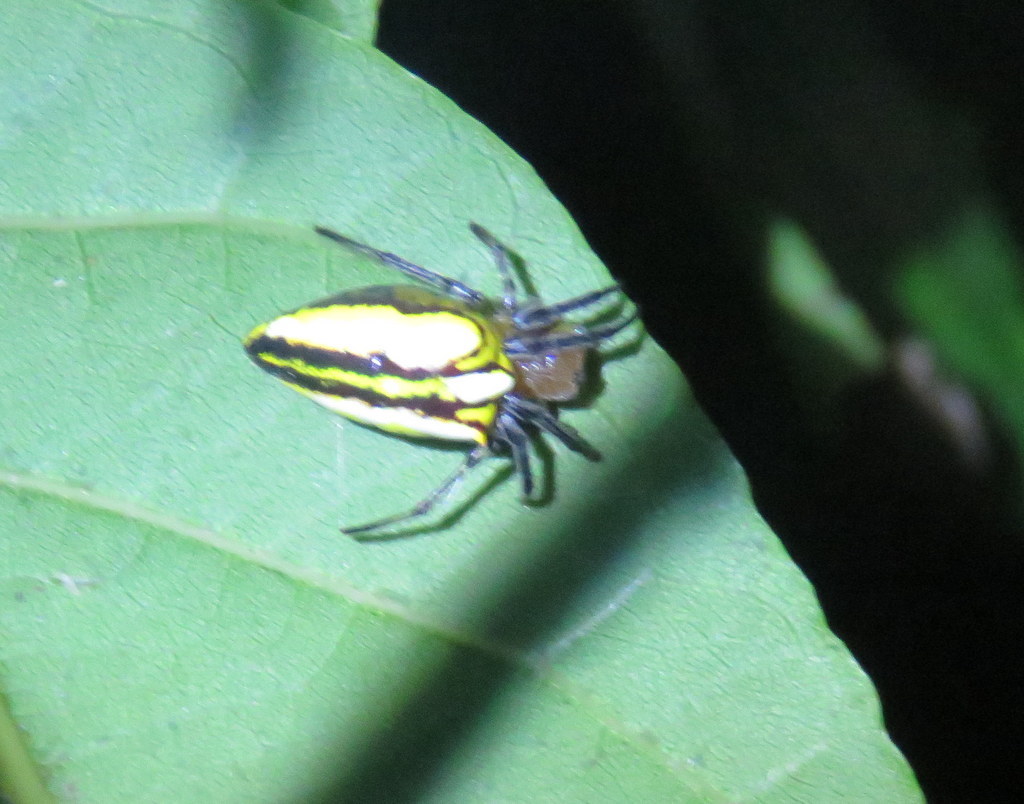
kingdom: Animalia
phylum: Arthropoda
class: Arachnida
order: Araneae
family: Araneidae
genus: Alpaida
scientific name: Alpaida bicornuta
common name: Orb weavers
